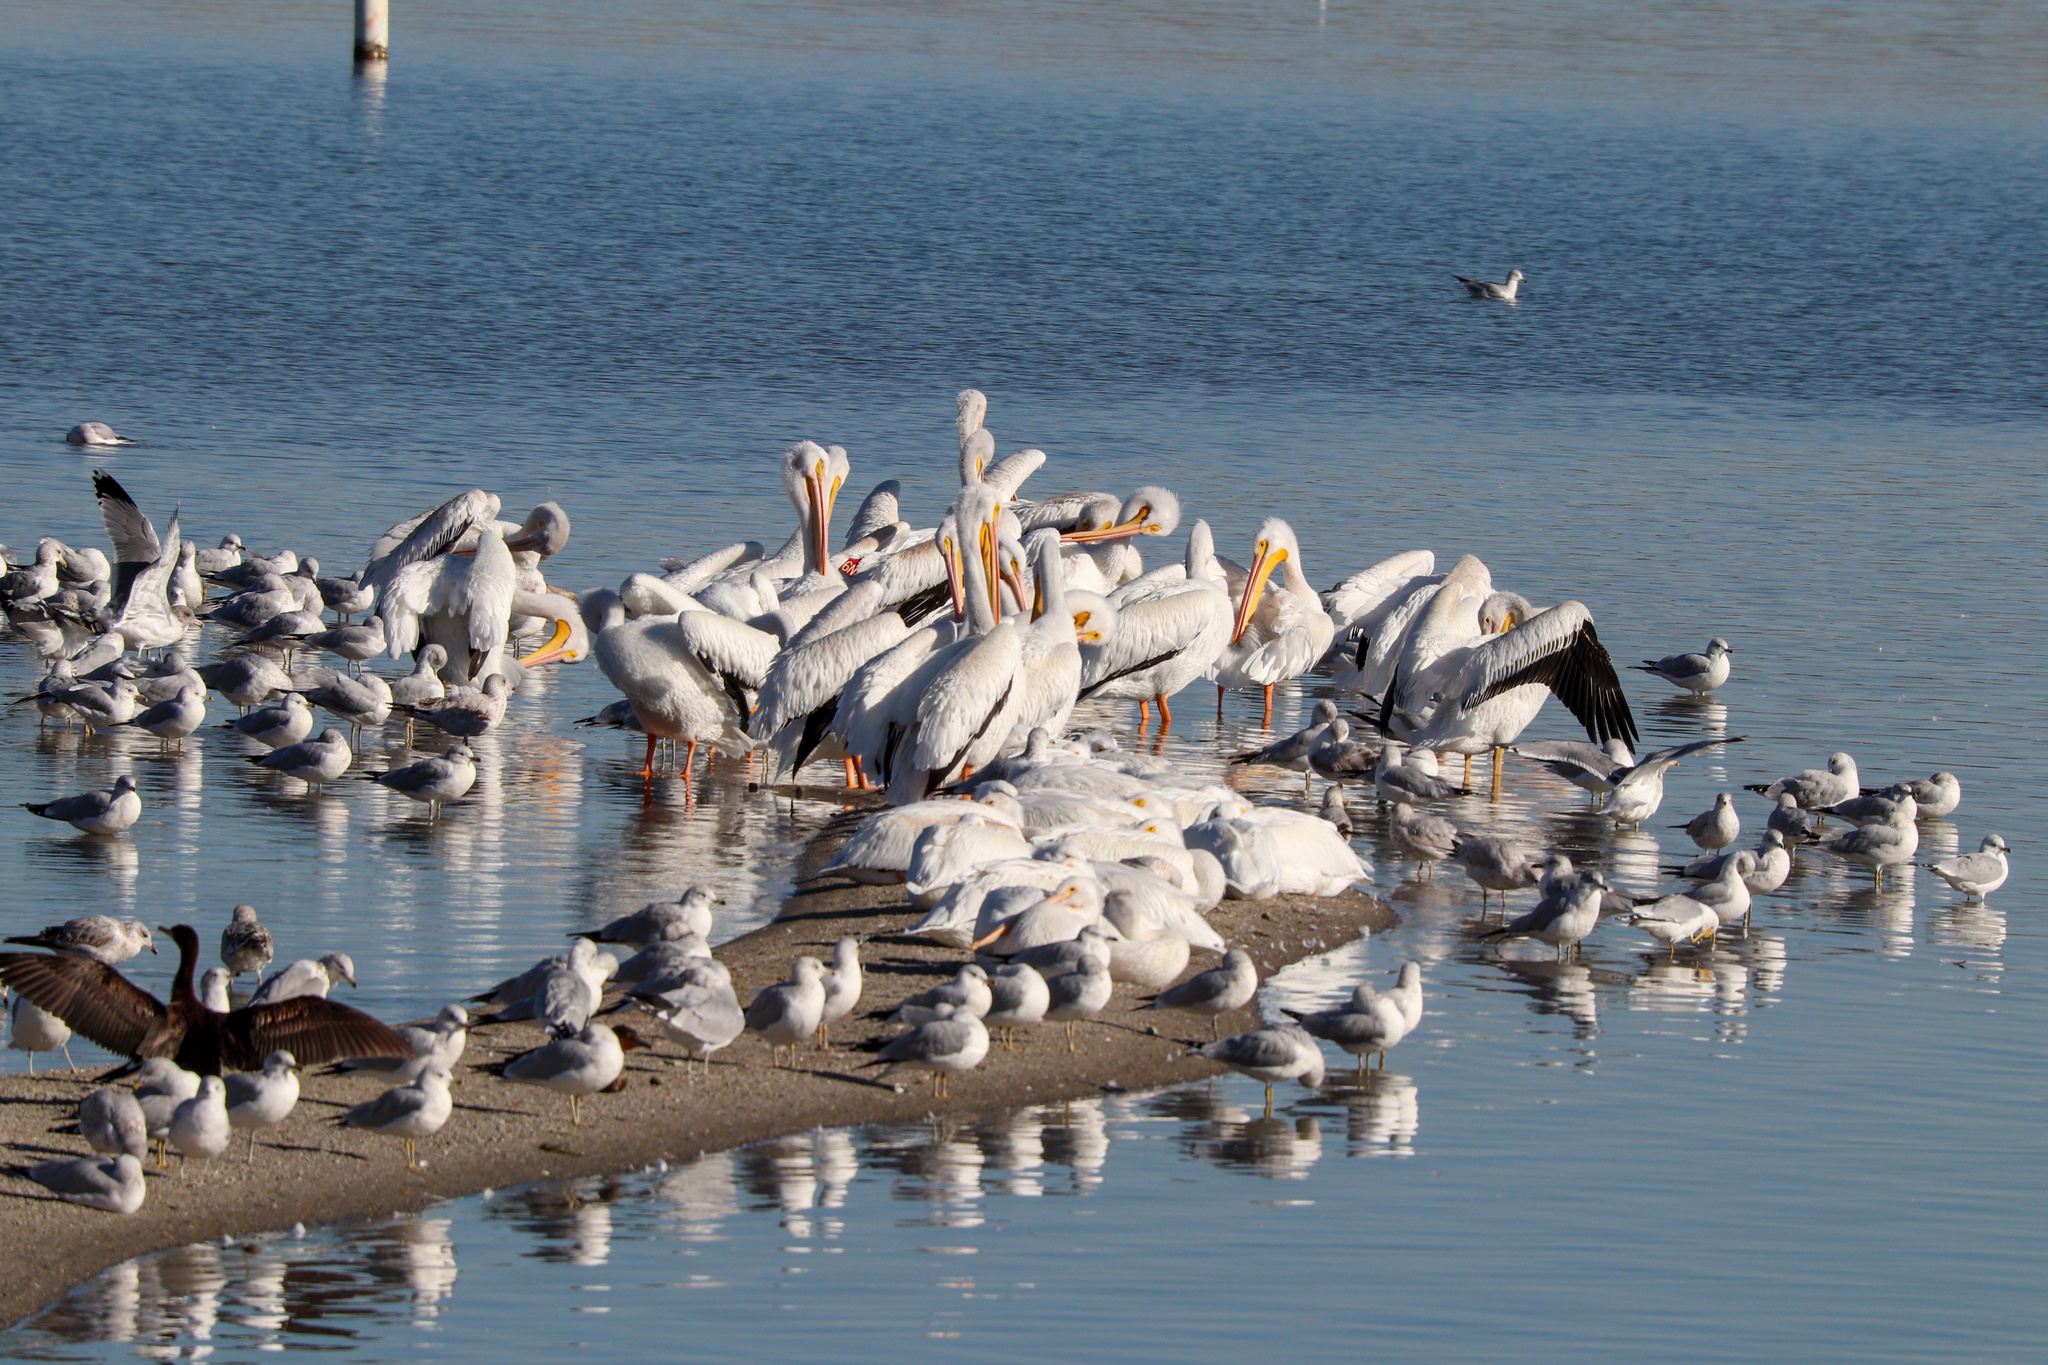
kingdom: Animalia
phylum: Chordata
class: Aves
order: Pelecaniformes
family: Pelecanidae
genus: Pelecanus
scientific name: Pelecanus erythrorhynchos
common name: American white pelican
